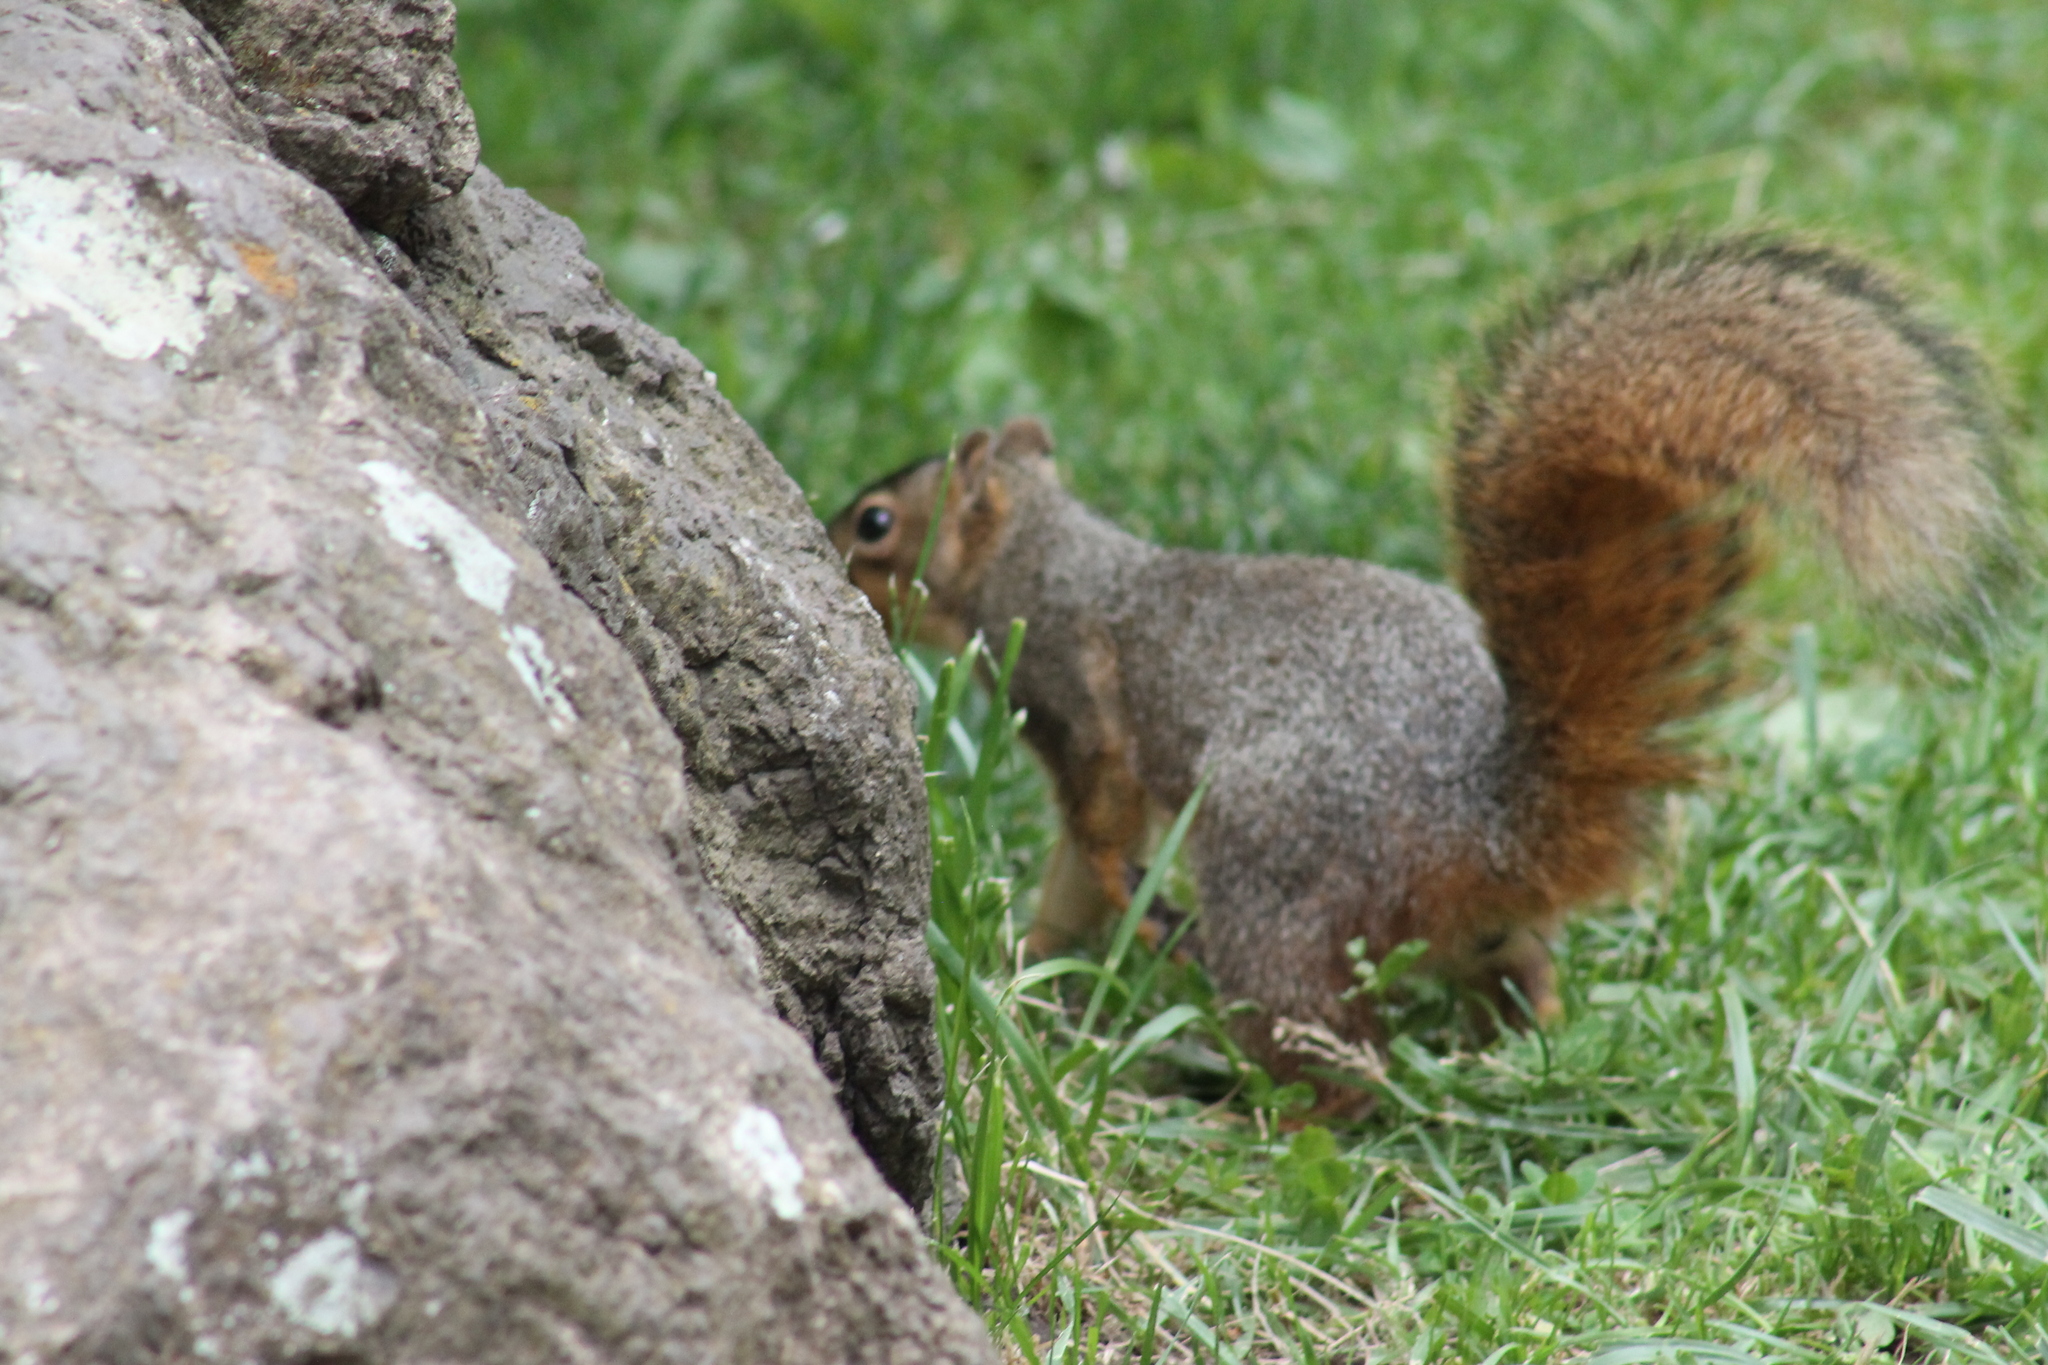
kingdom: Animalia
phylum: Chordata
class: Mammalia
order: Rodentia
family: Sciuridae
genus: Sciurus
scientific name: Sciurus niger
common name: Fox squirrel
